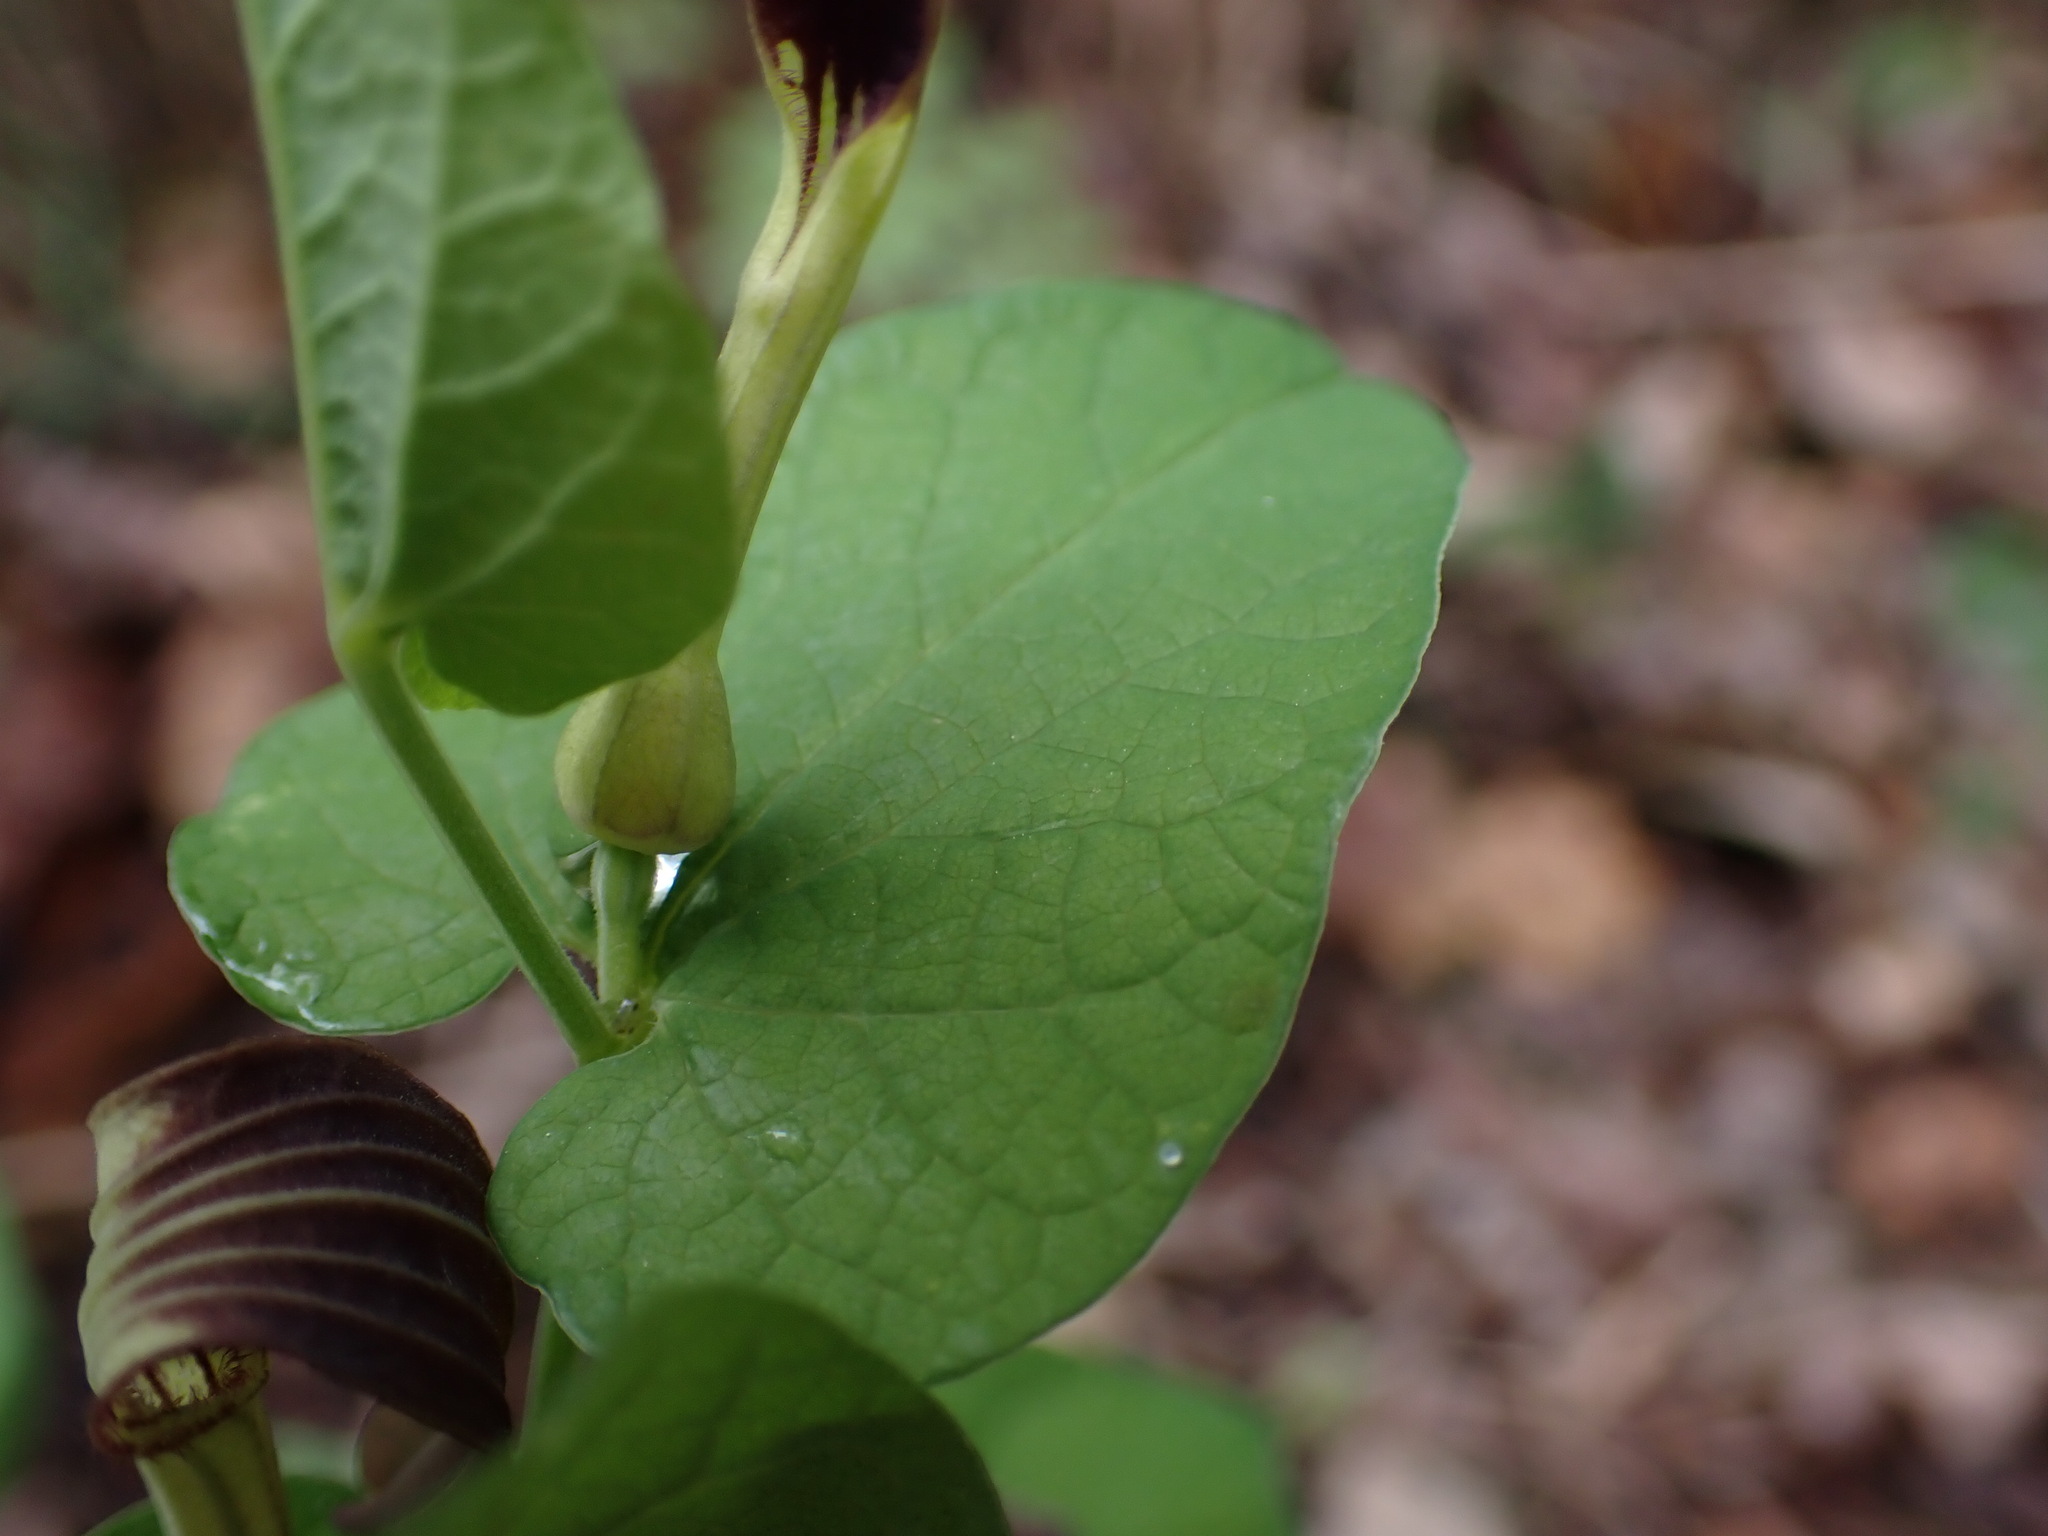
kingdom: Plantae
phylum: Tracheophyta
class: Magnoliopsida
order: Piperales
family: Aristolochiaceae
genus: Aristolochia
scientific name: Aristolochia rotunda
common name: Smearwort
